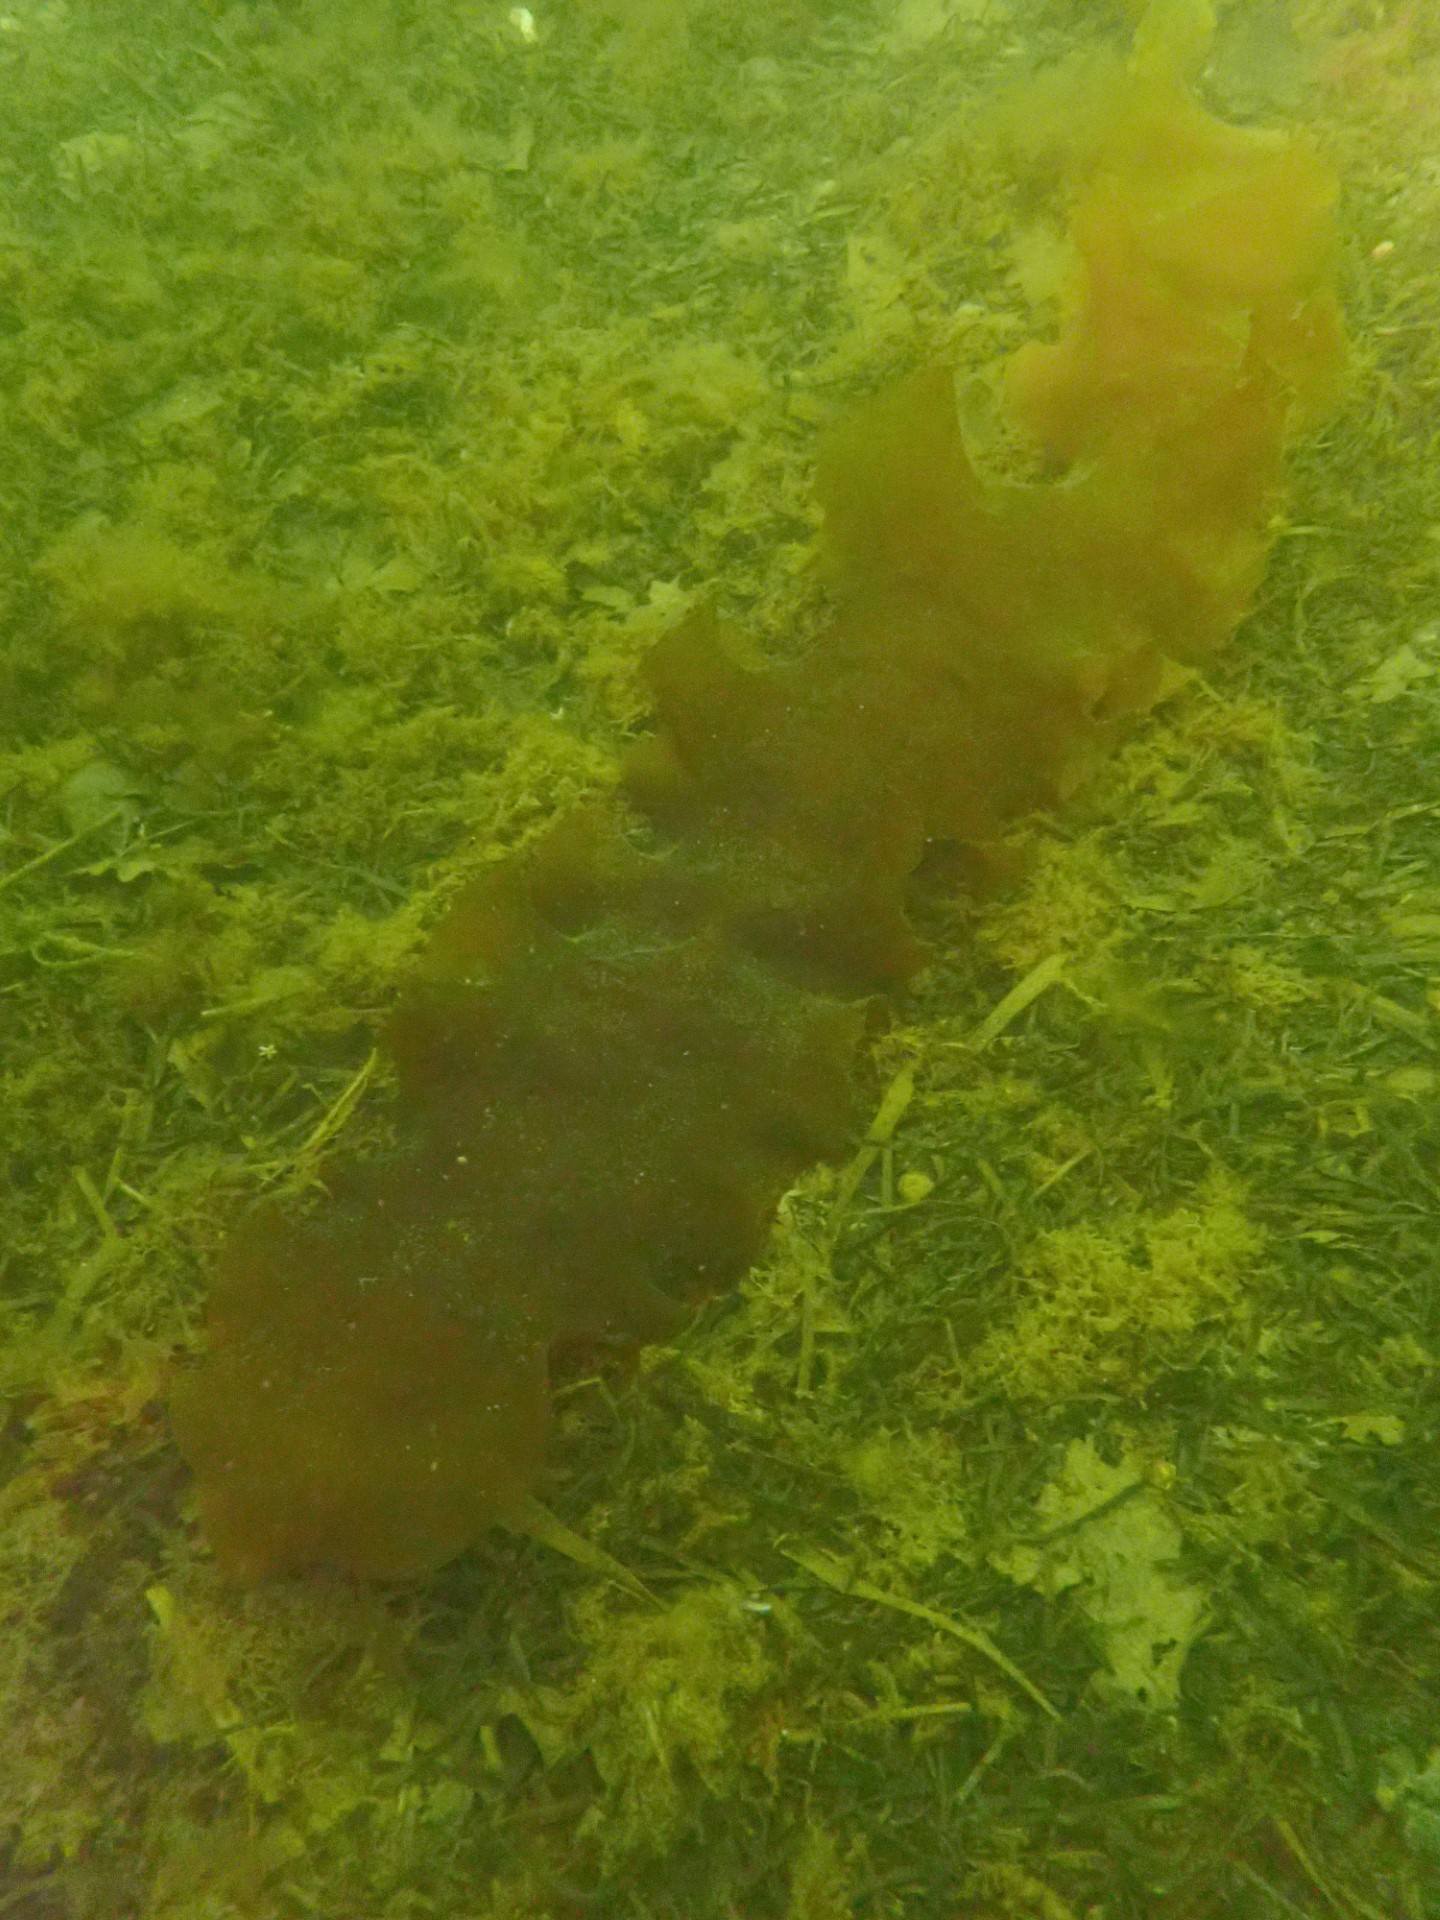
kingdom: Chromista
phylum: Ochrophyta
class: Phaeophyceae
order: Laminariales
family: Laminariaceae
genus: Saccharina
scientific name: Saccharina latissima
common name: Poor man's weather glass
